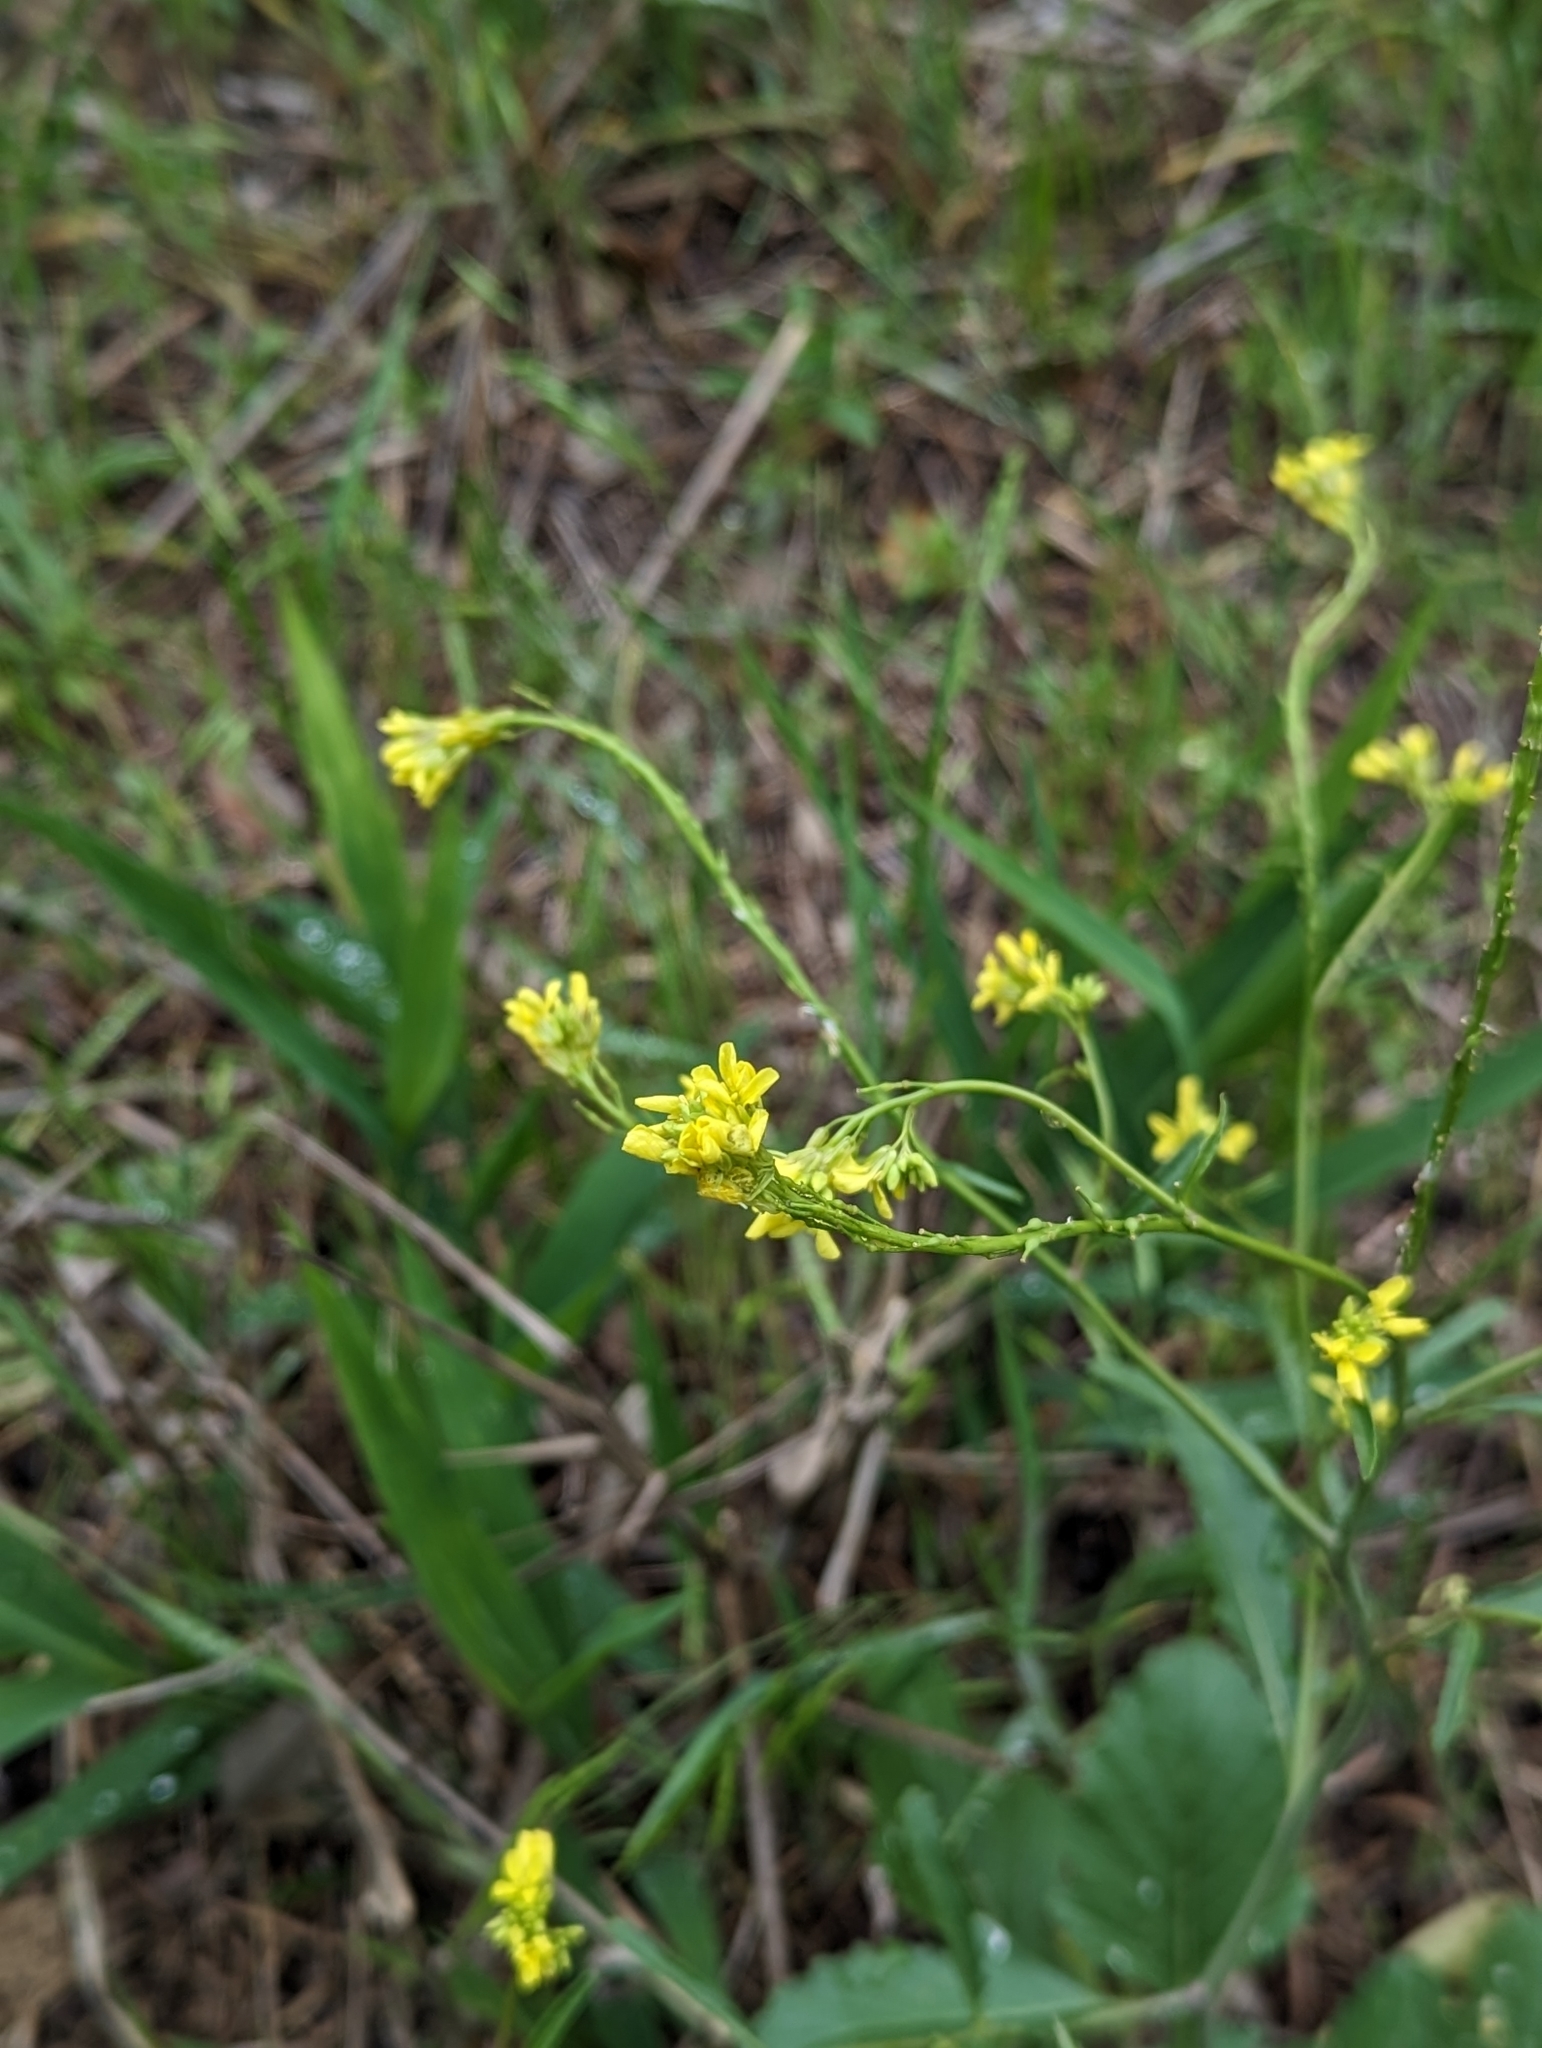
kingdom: Plantae
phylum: Tracheophyta
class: Magnoliopsida
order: Brassicales
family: Brassicaceae
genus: Rapistrum
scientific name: Rapistrum rugosum
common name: Annual bastardcabbage
